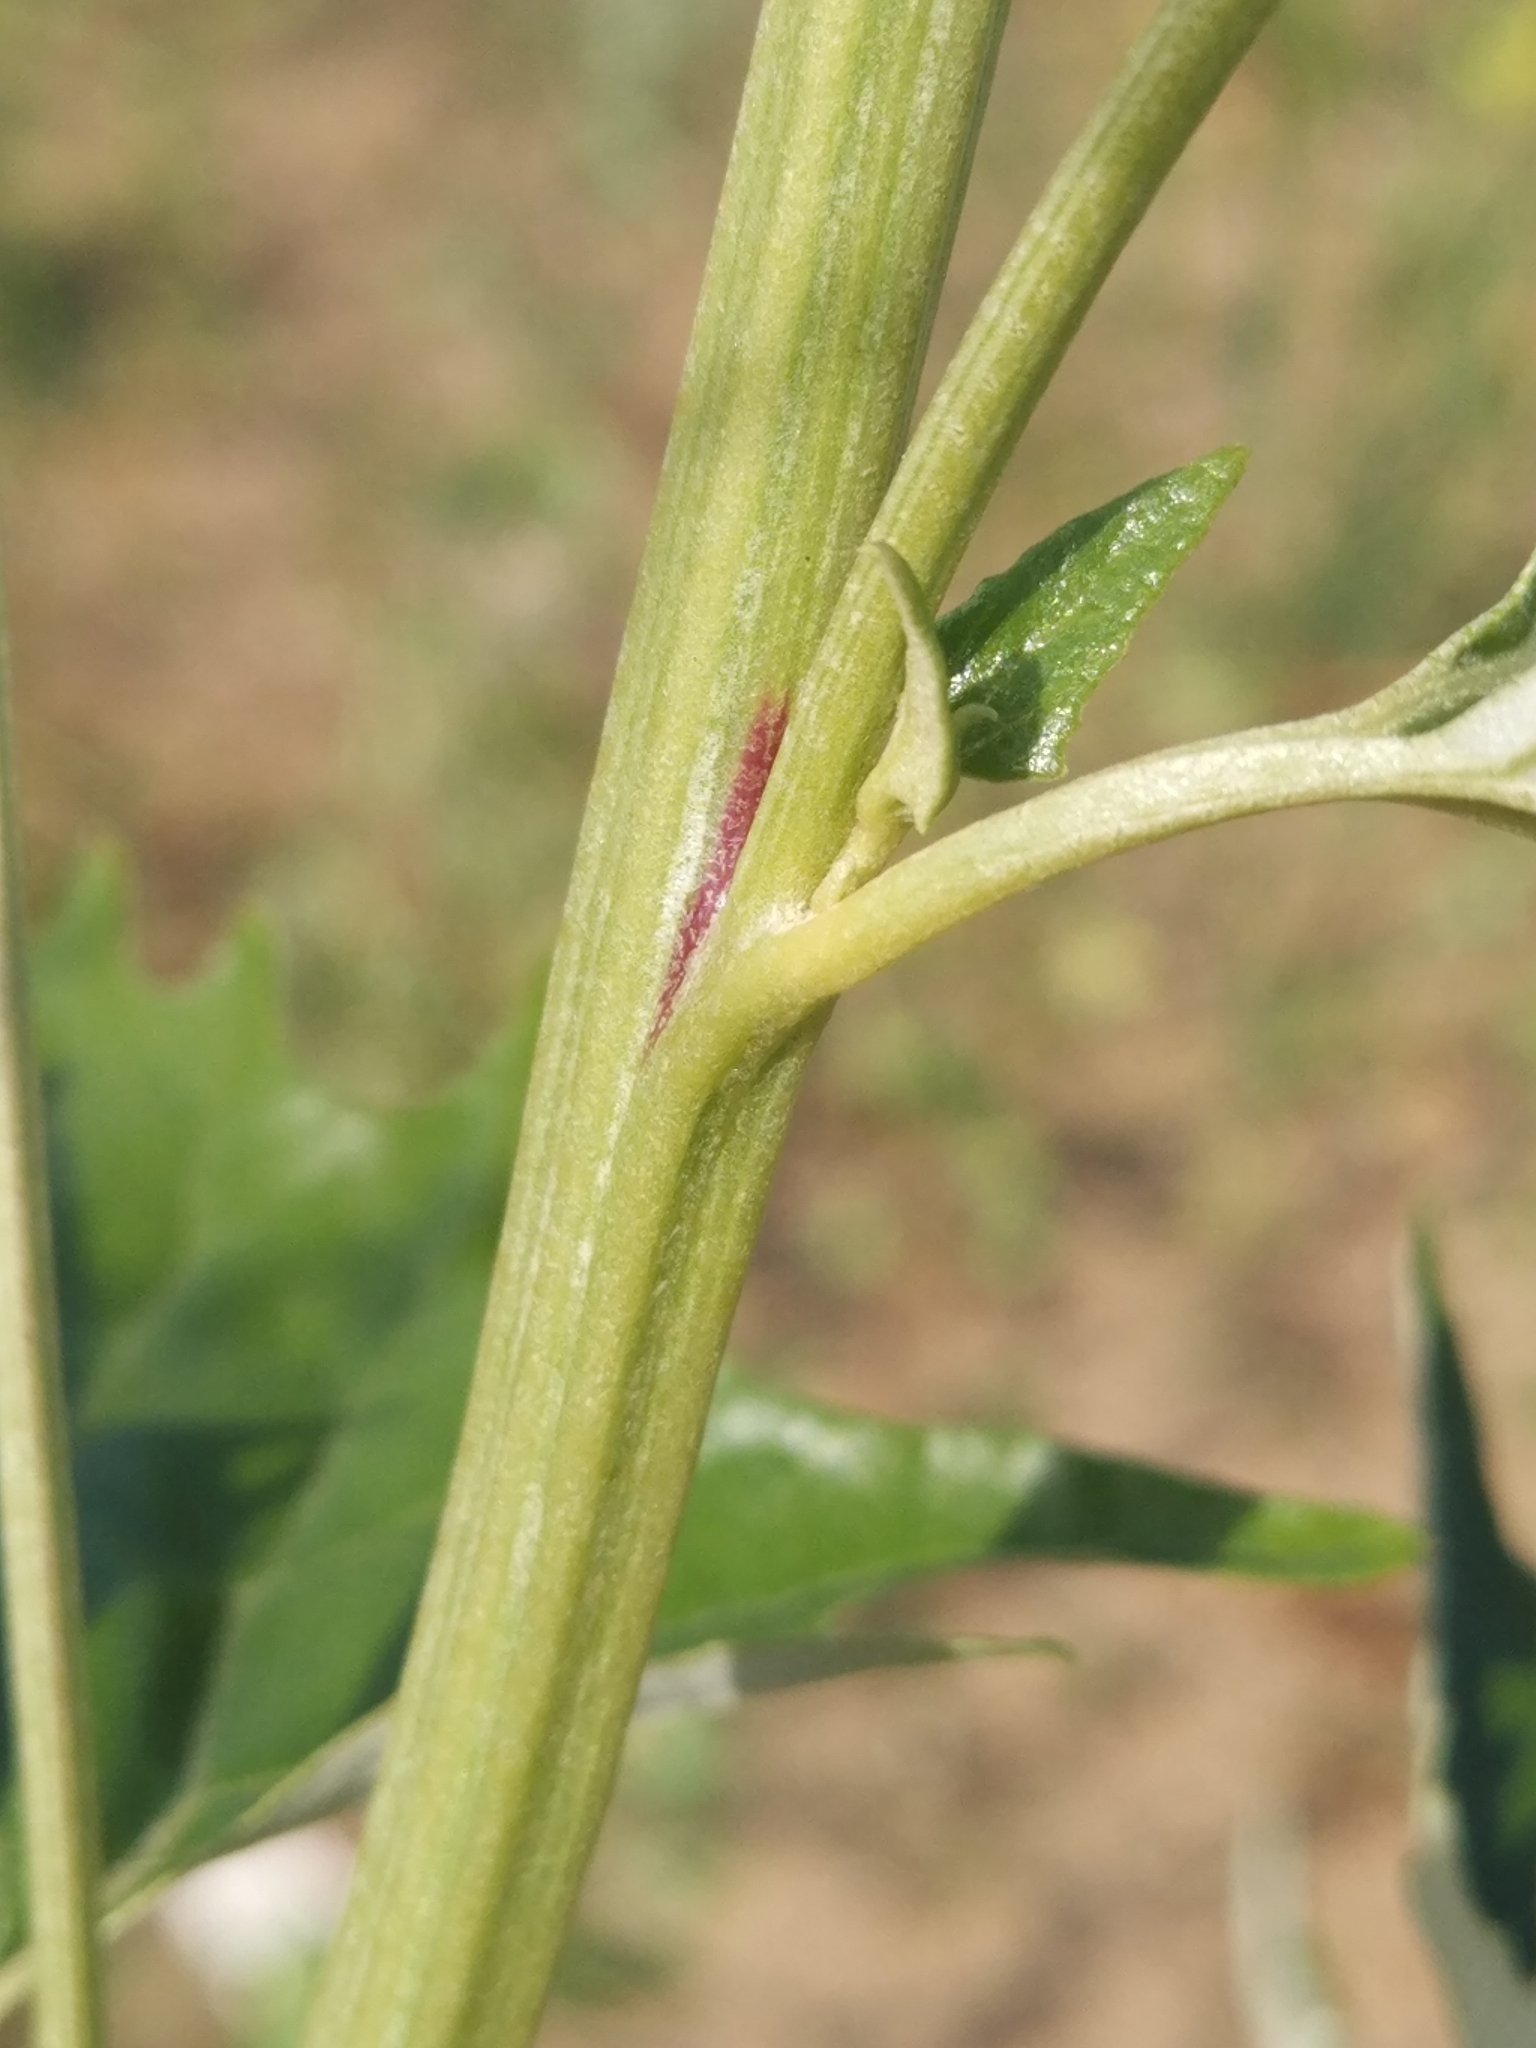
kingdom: Plantae
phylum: Tracheophyta
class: Magnoliopsida
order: Caryophyllales
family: Amaranthaceae
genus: Atriplex
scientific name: Atriplex sagittata
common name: Purple orache
